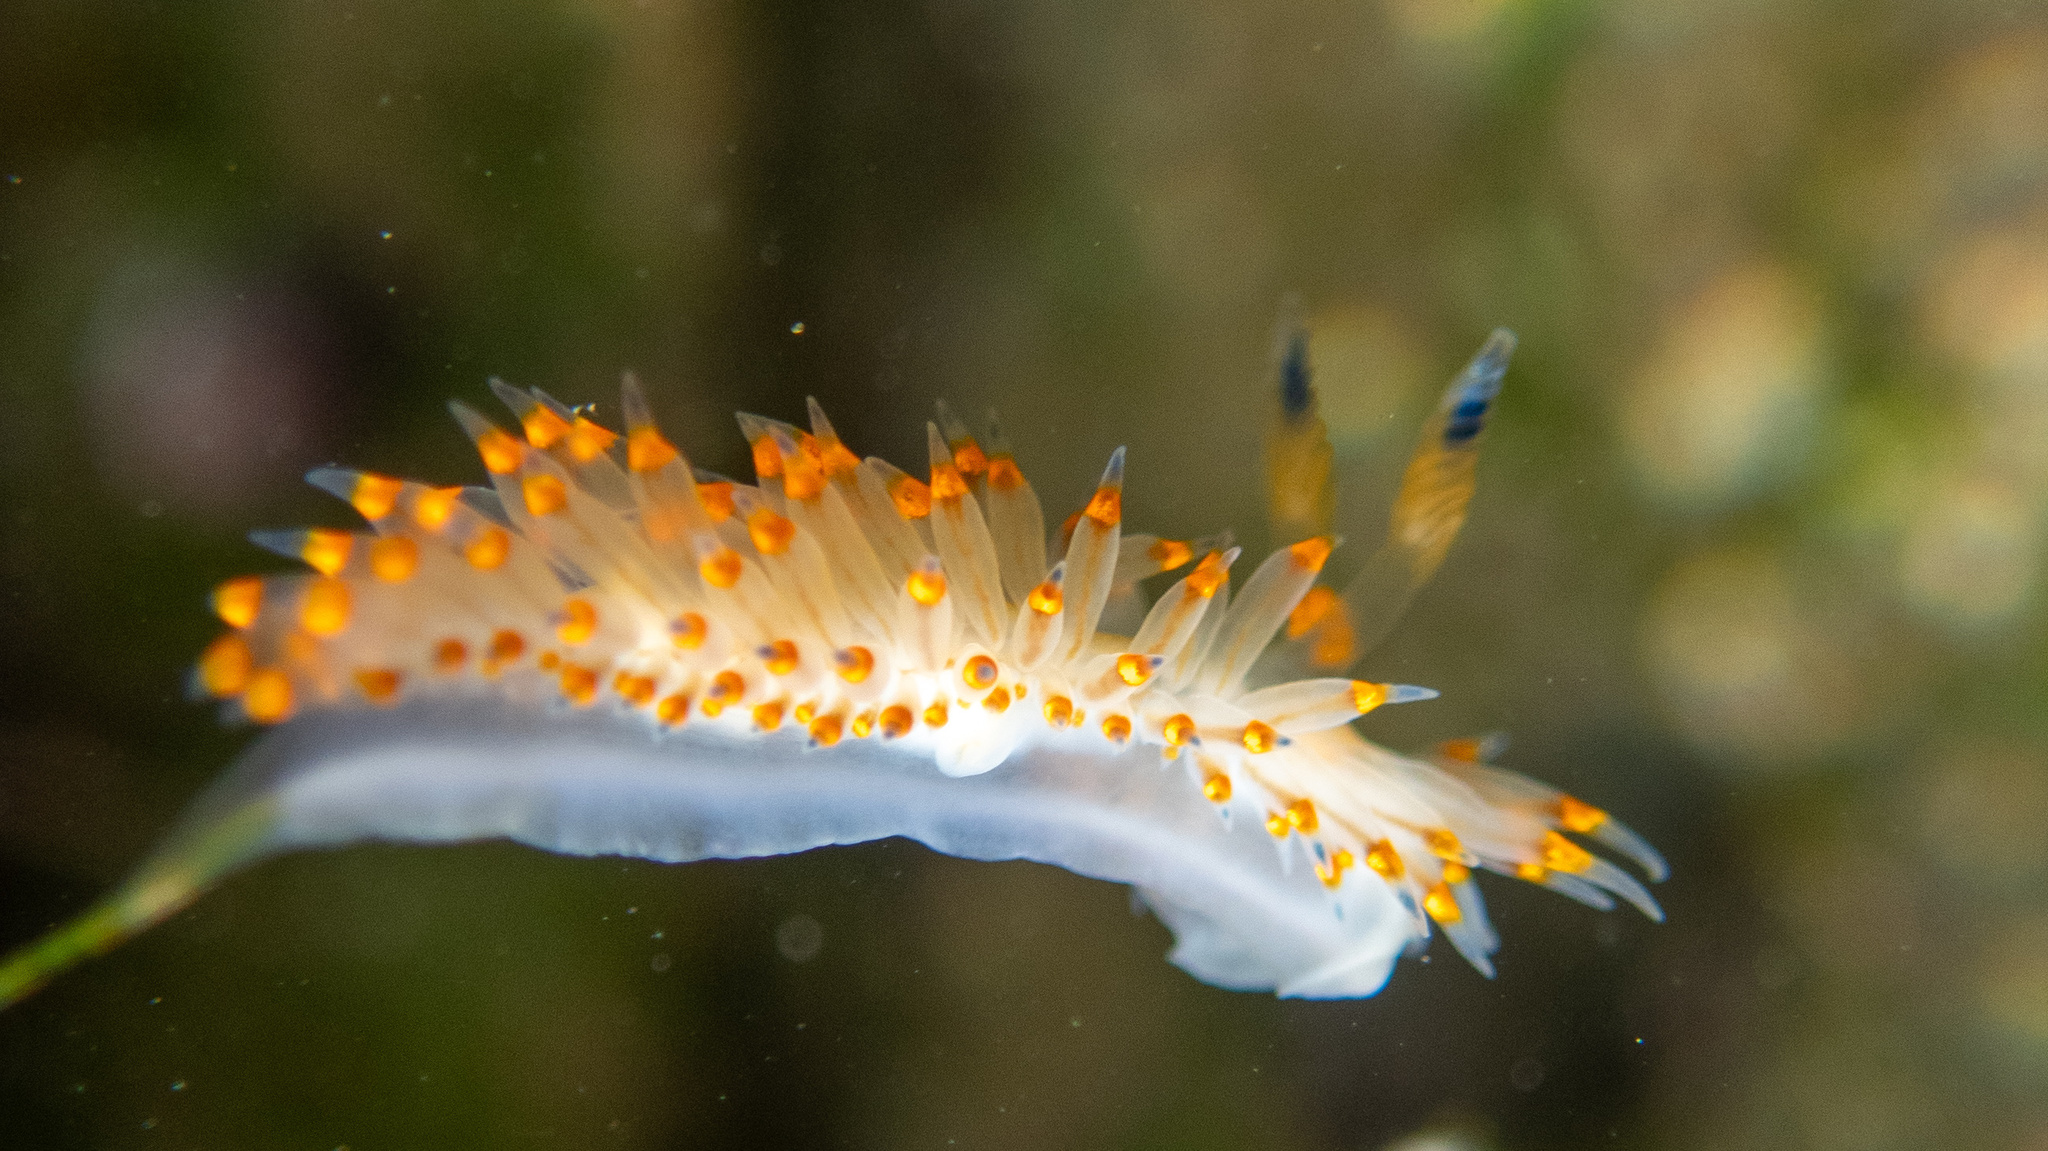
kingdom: Animalia
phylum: Mollusca
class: Gastropoda
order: Nudibranchia
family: Janolidae
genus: Antiopella
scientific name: Antiopella barbarensis
